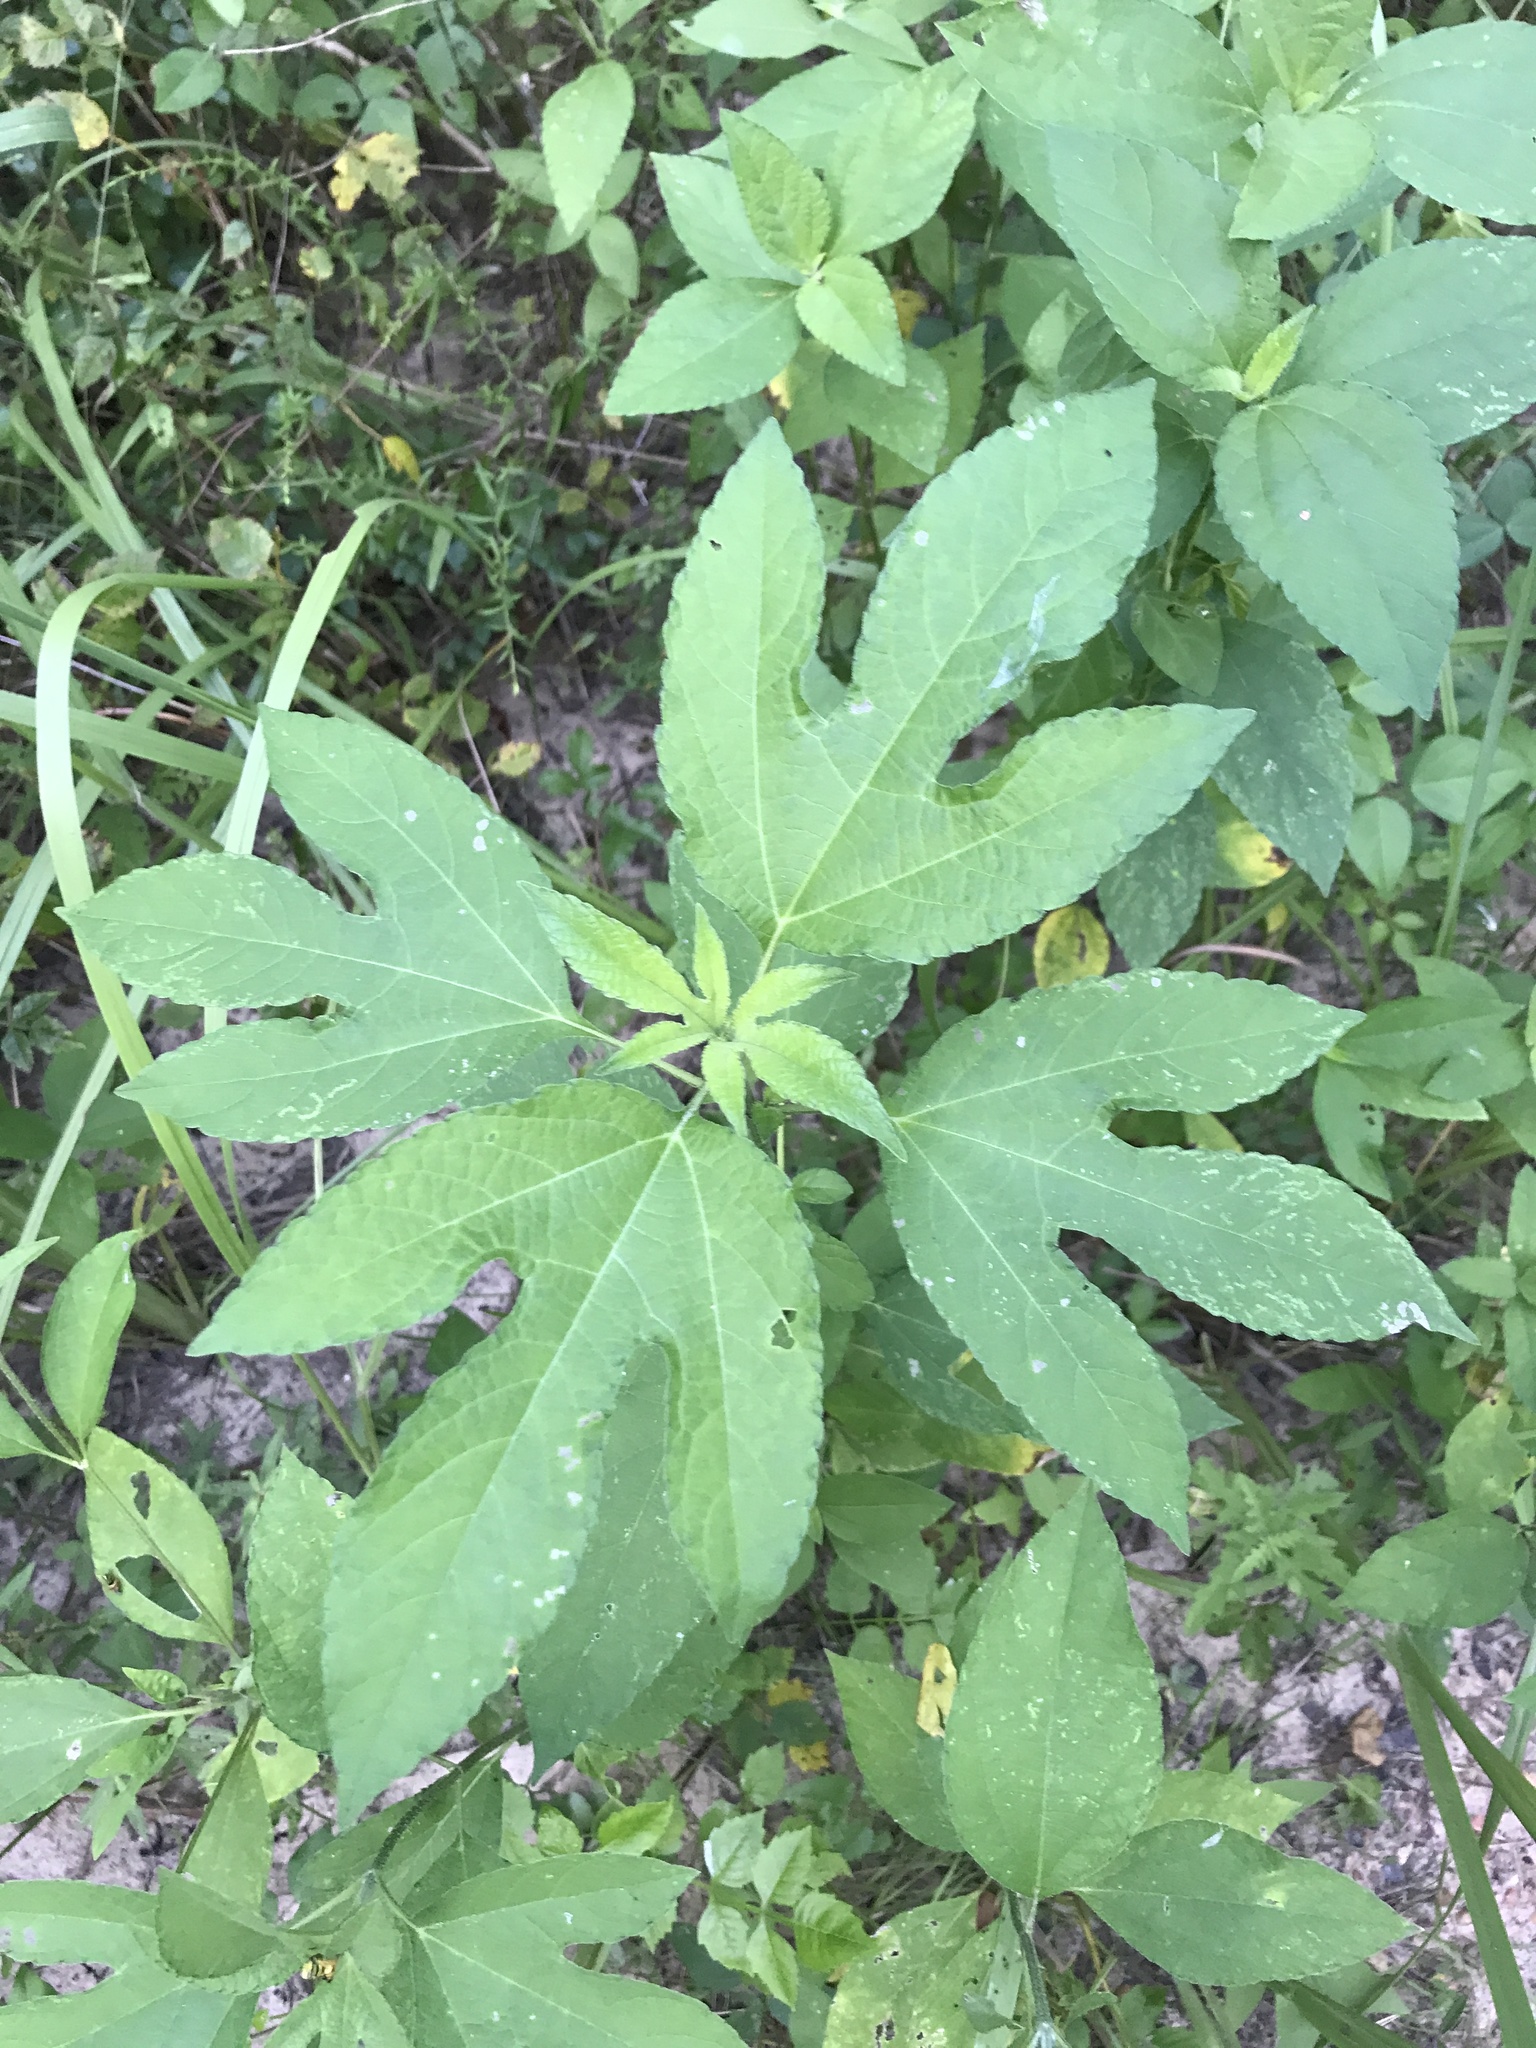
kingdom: Plantae
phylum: Tracheophyta
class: Magnoliopsida
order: Asterales
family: Asteraceae
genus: Ambrosia
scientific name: Ambrosia trifida
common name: Giant ragweed
